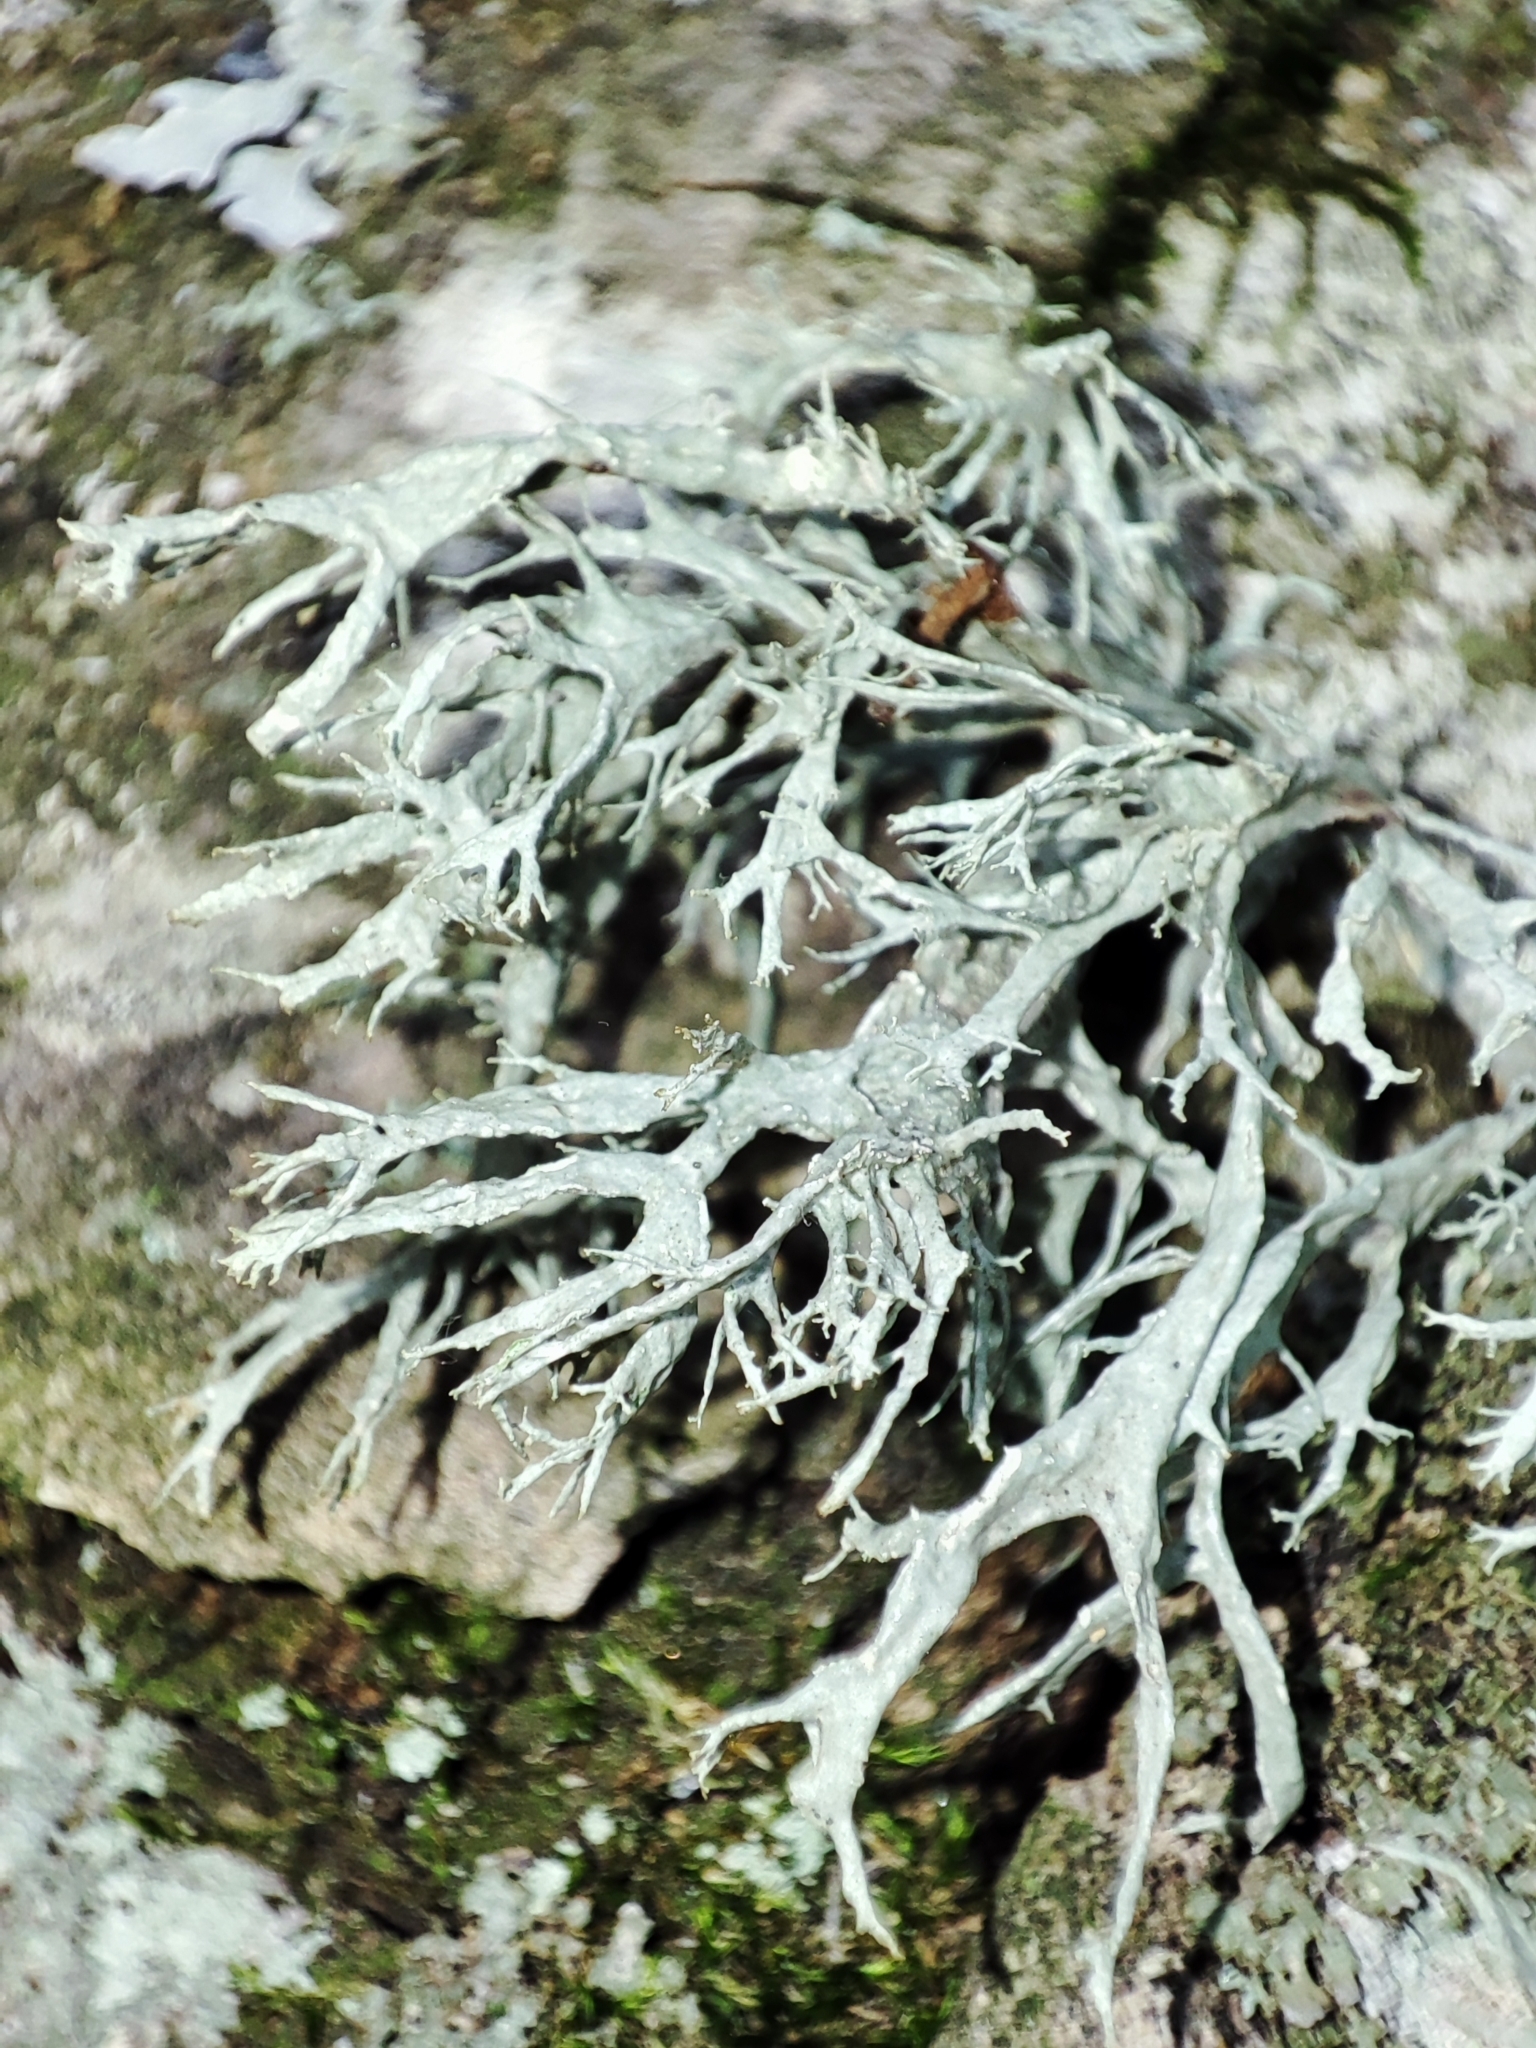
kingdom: Fungi
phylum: Ascomycota
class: Lecanoromycetes
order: Lecanorales
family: Ramalinaceae
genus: Ramalina
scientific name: Ramalina farinacea
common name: Farinose cartilage lichen
